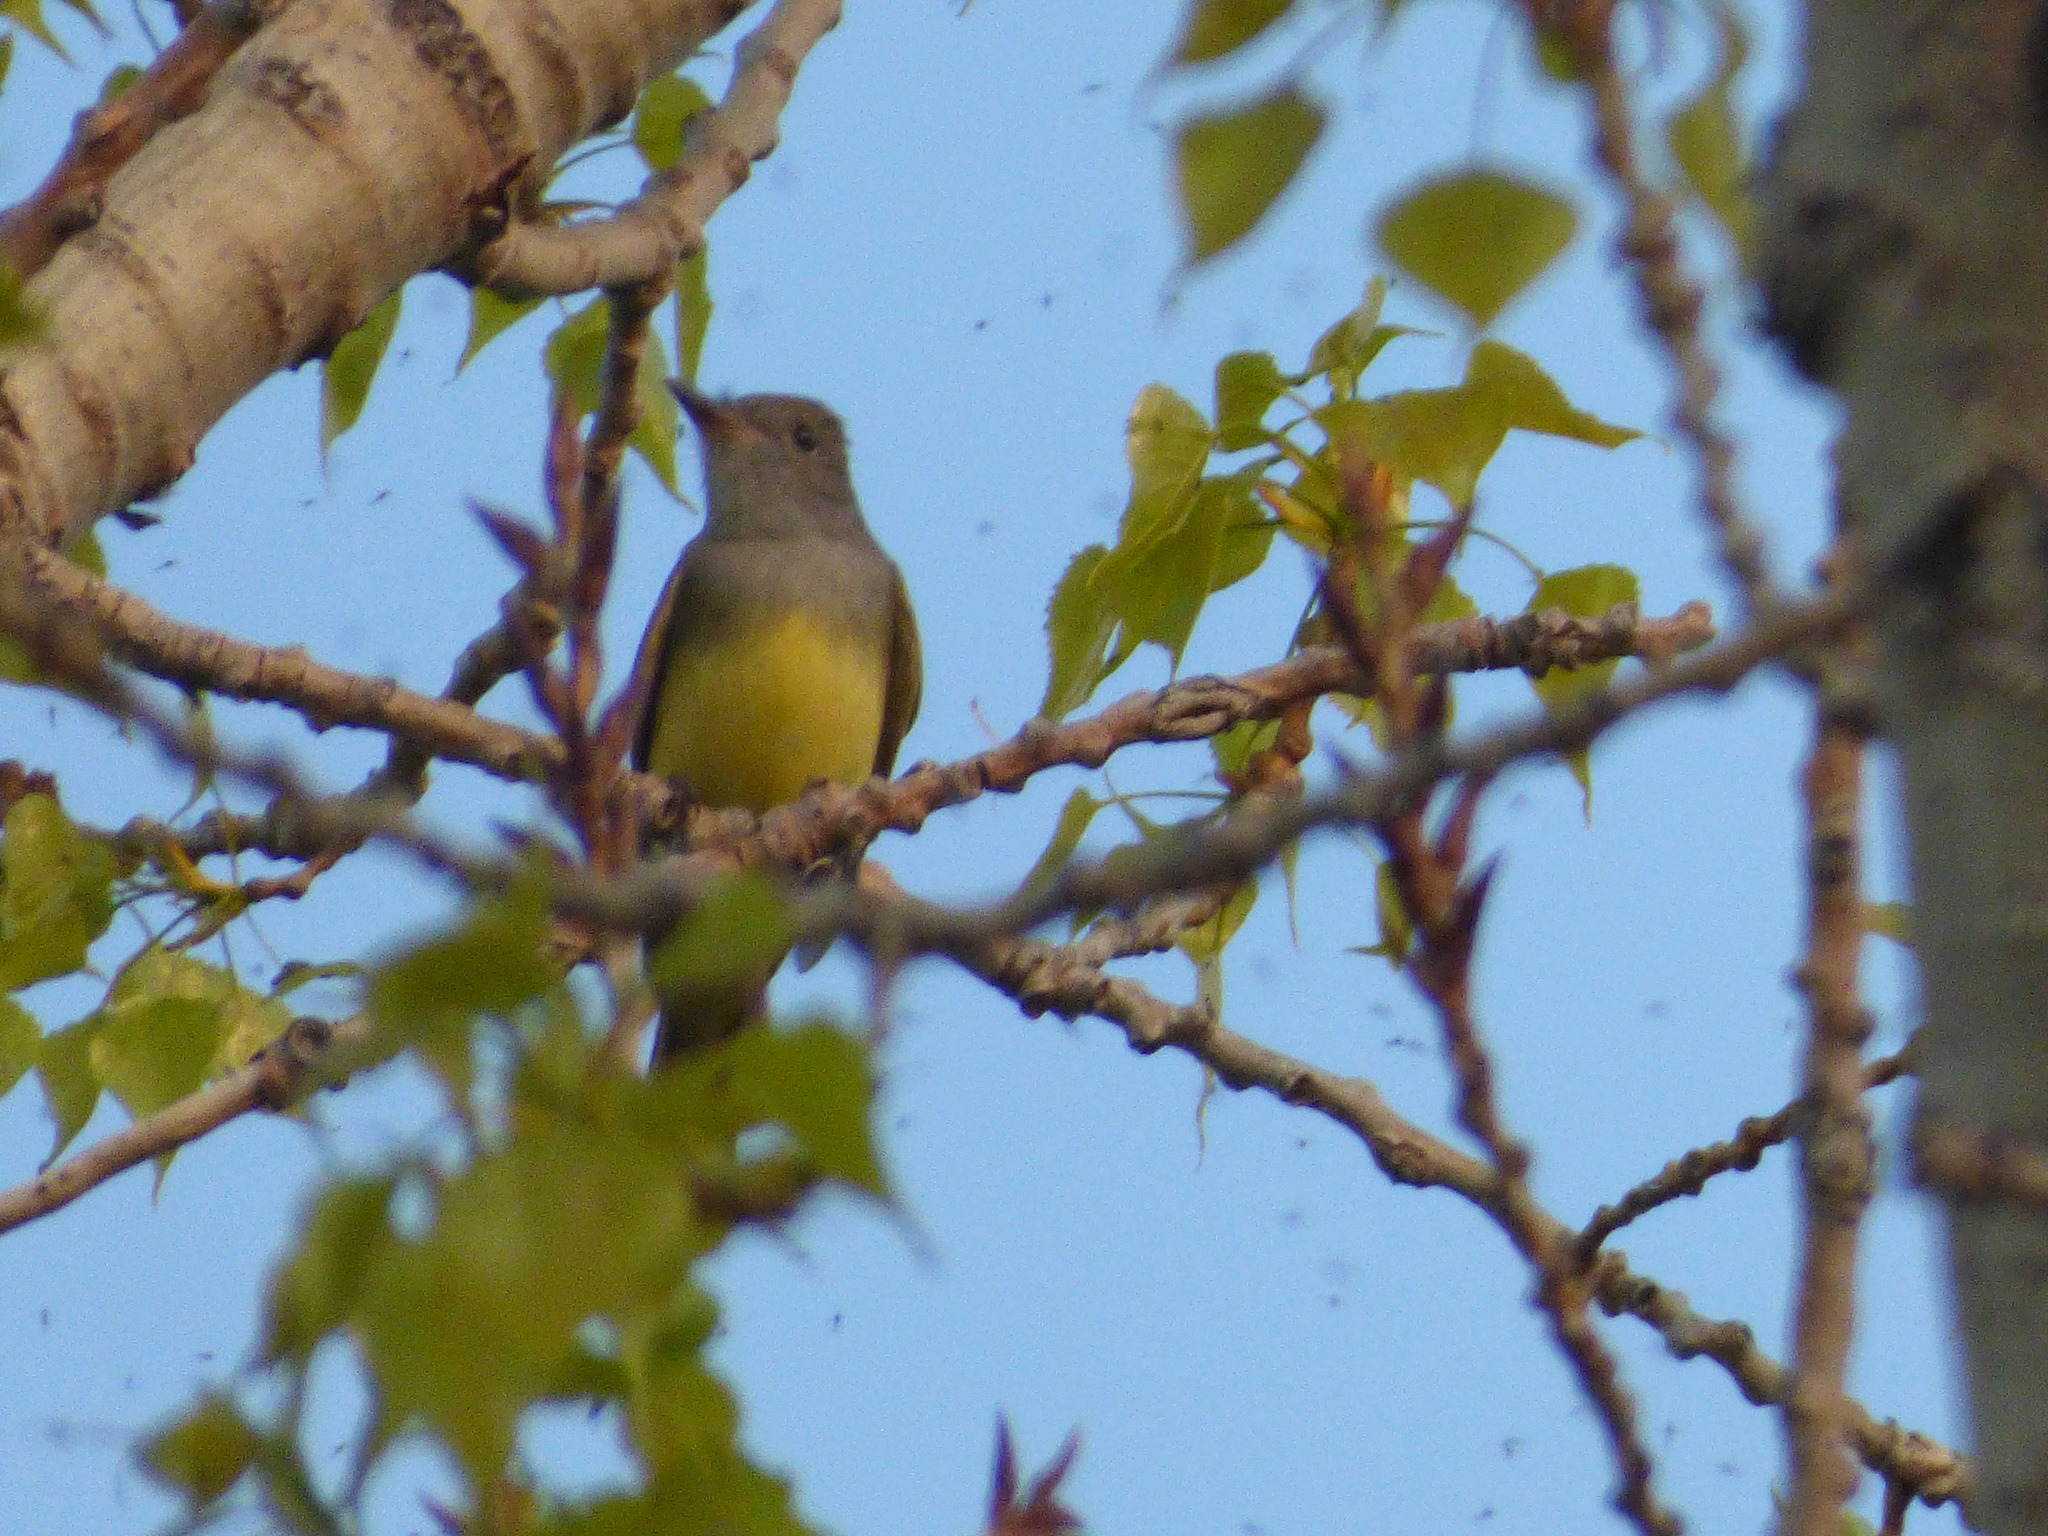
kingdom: Animalia
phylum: Chordata
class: Aves
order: Passeriformes
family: Tyrannidae
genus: Myiarchus
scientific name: Myiarchus crinitus
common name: Great crested flycatcher
